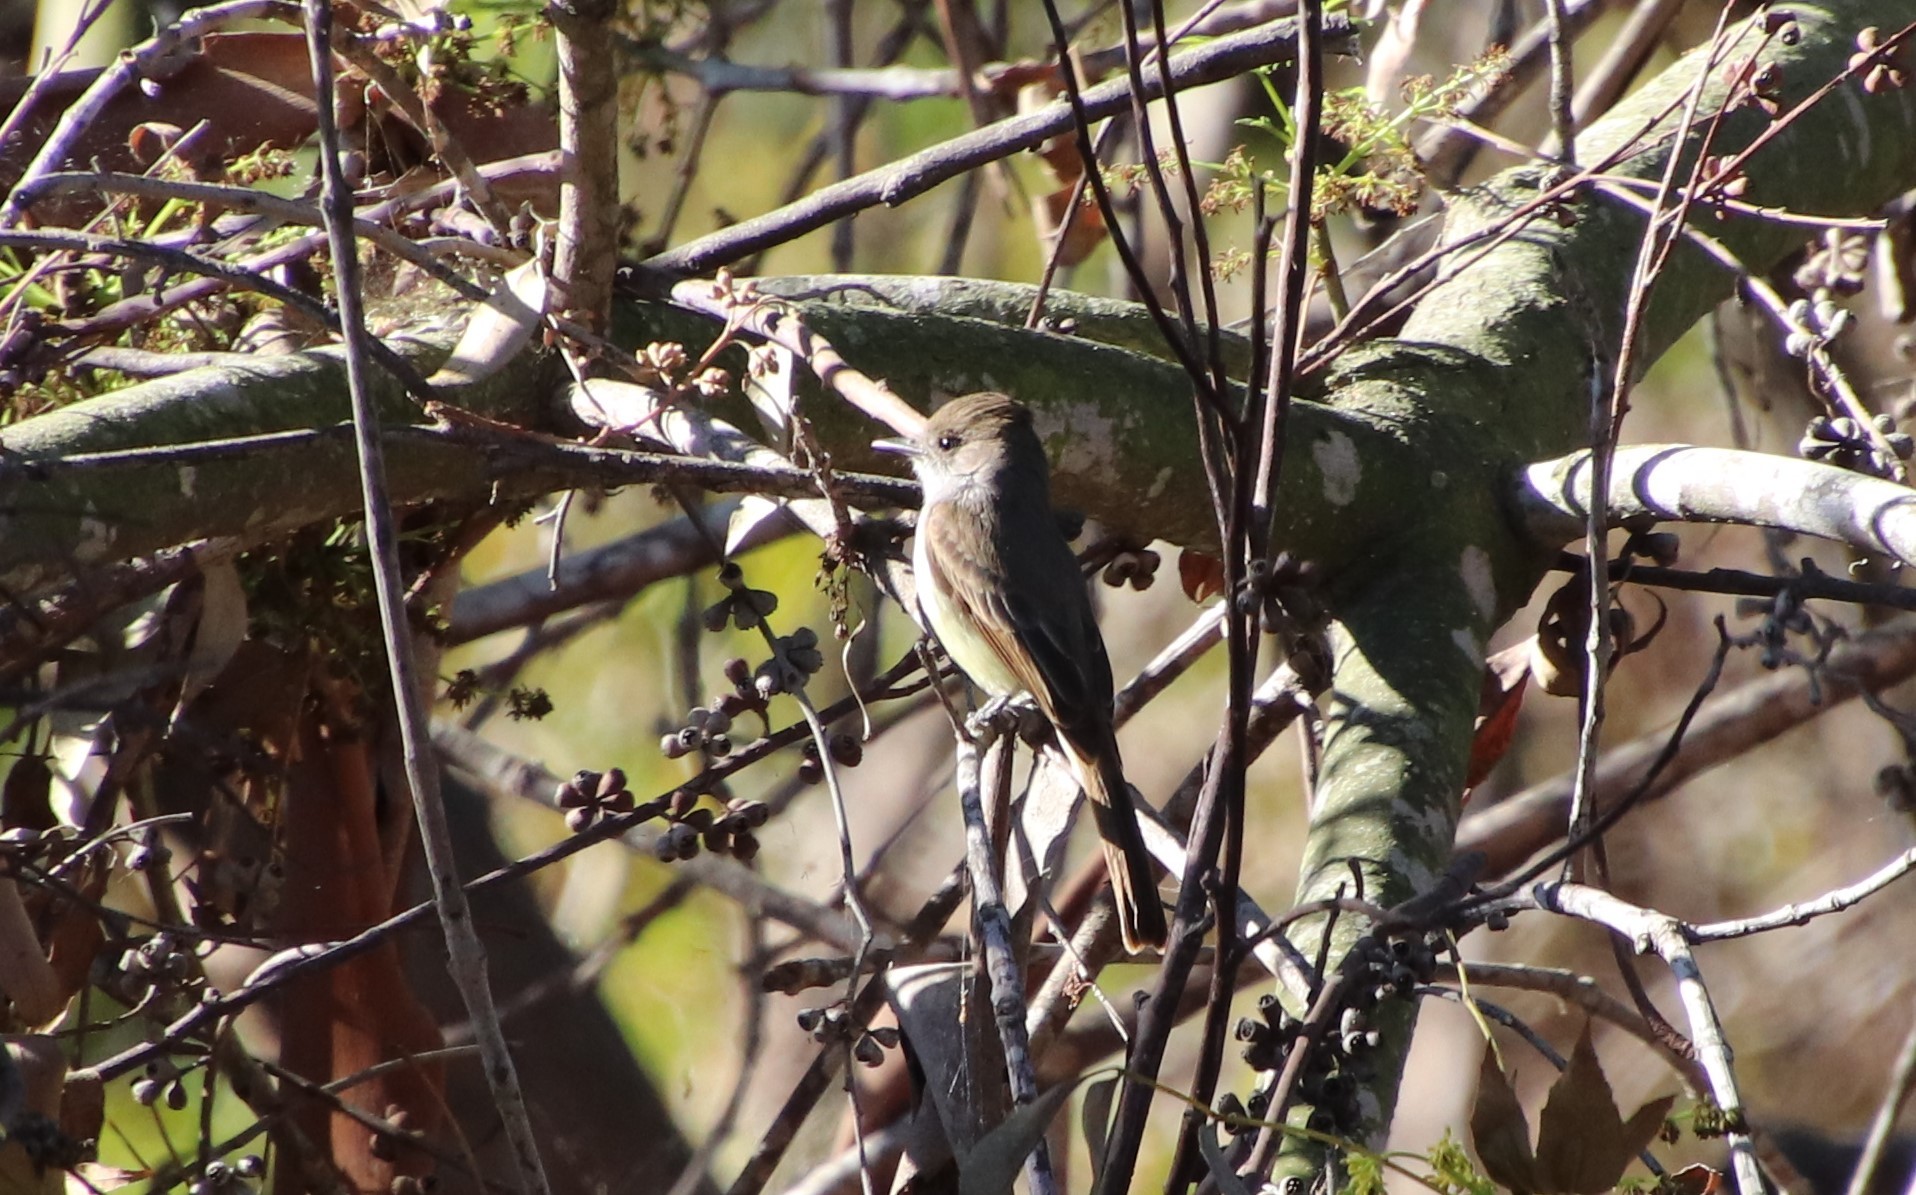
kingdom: Animalia
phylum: Chordata
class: Aves
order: Passeriformes
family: Tyrannidae
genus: Myiarchus
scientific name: Myiarchus tuberculifer
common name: Dusky-capped flycatcher
